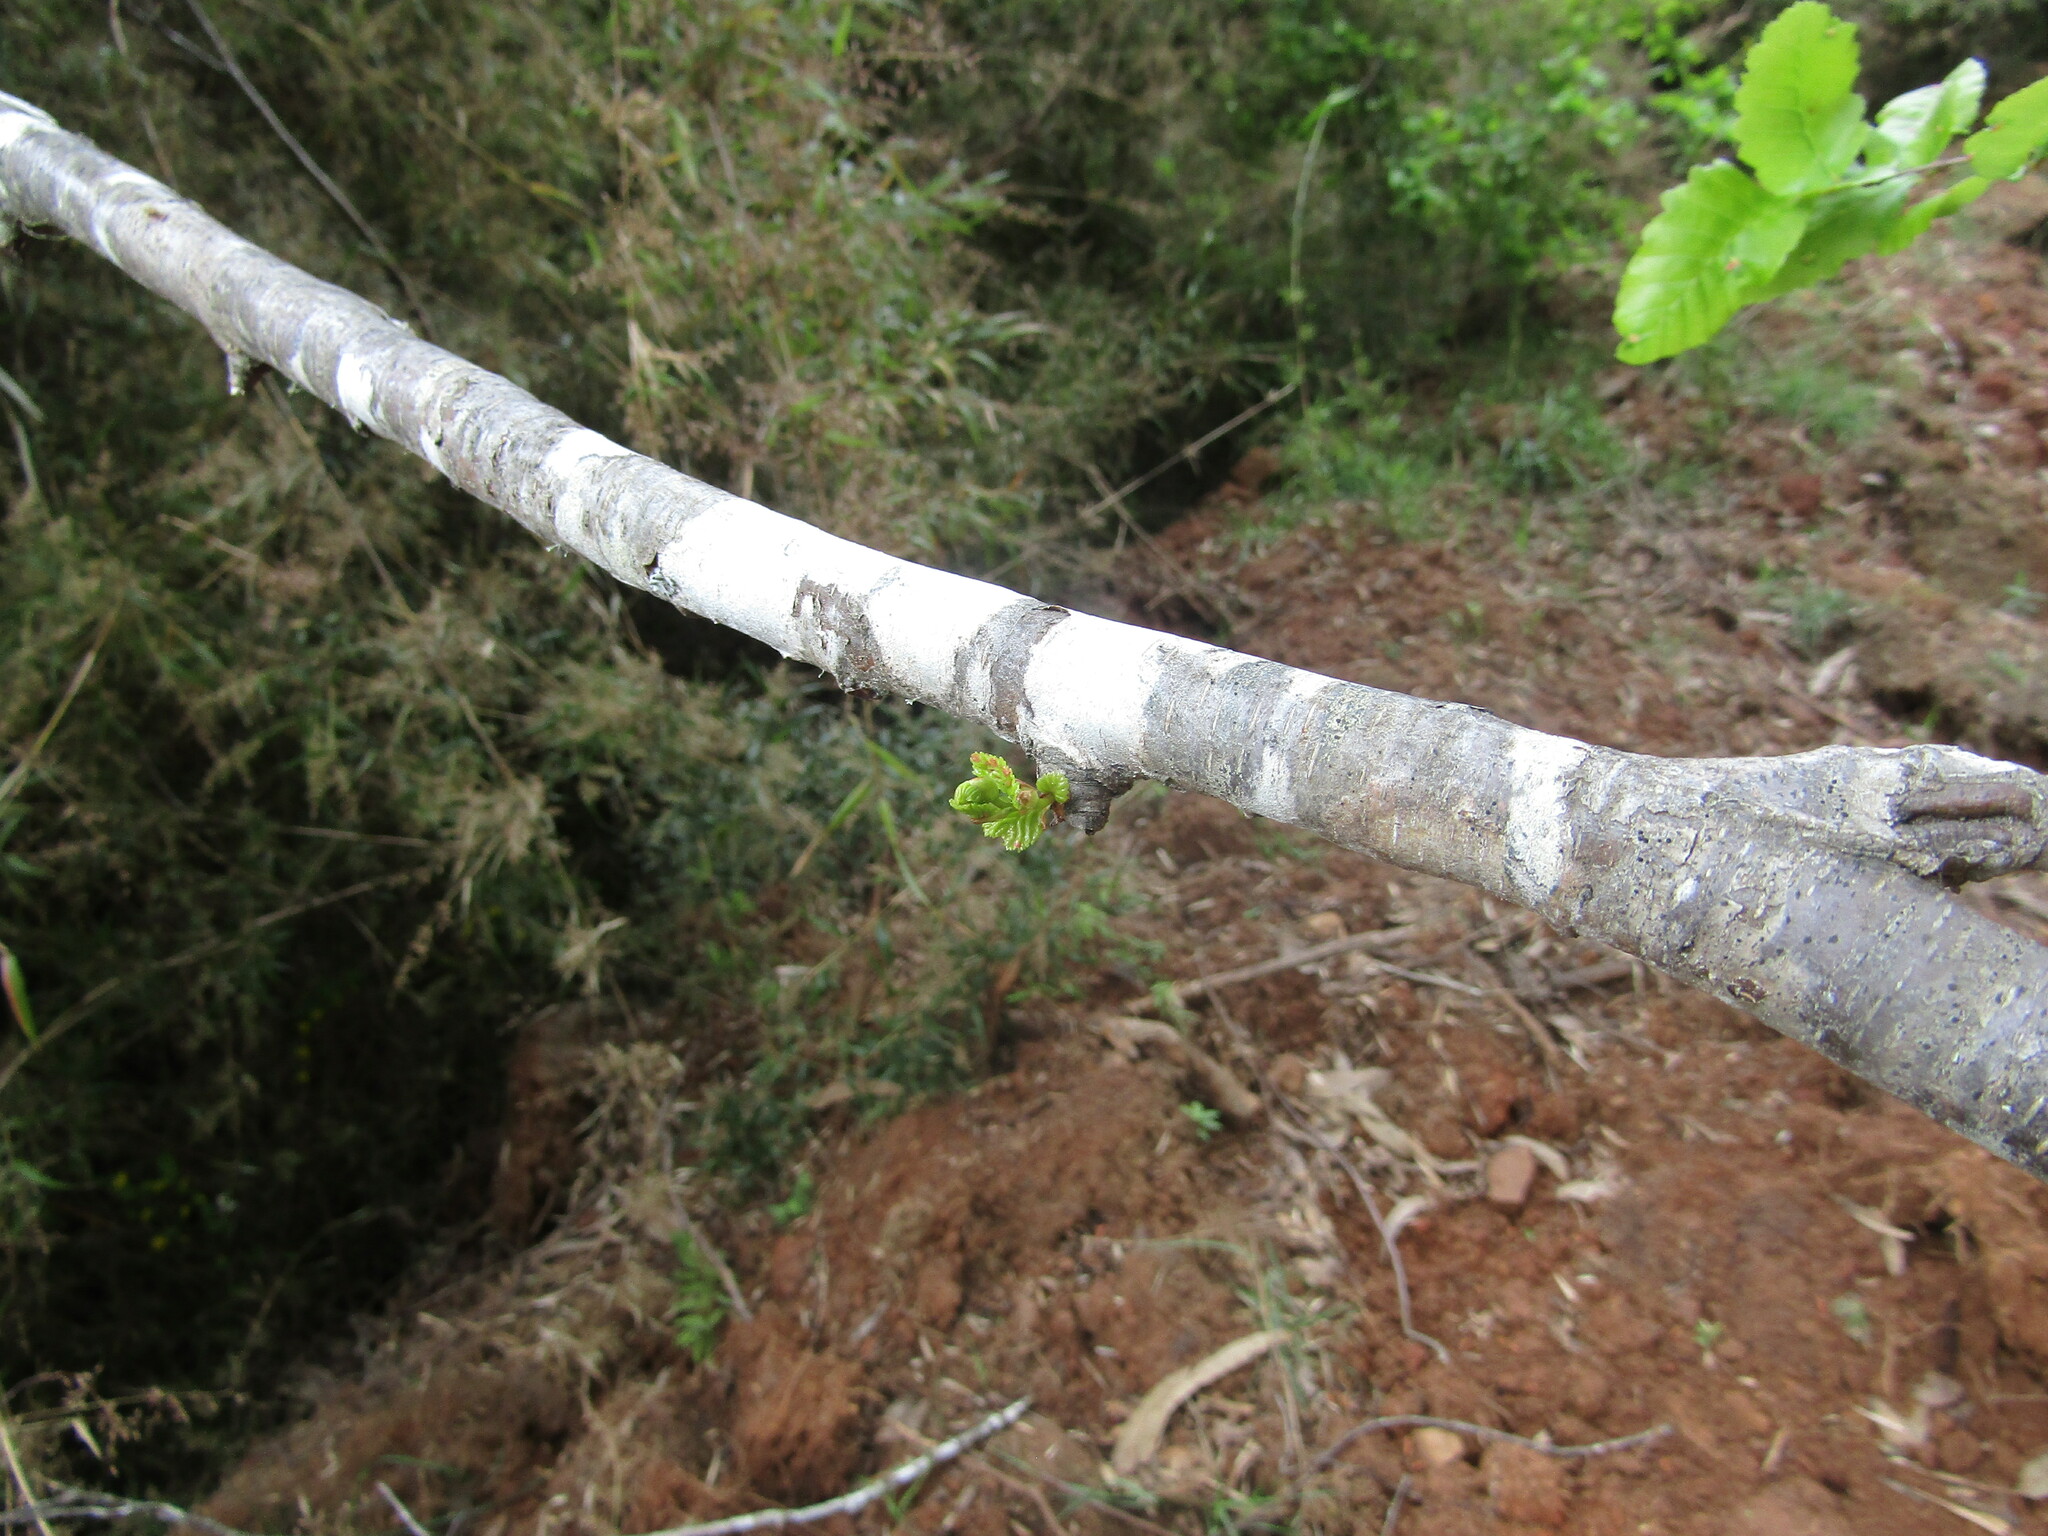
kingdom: Plantae
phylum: Tracheophyta
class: Magnoliopsida
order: Fagales
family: Nothofagaceae
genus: Nothofagus
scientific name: Nothofagus obliqua
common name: Roble beech
